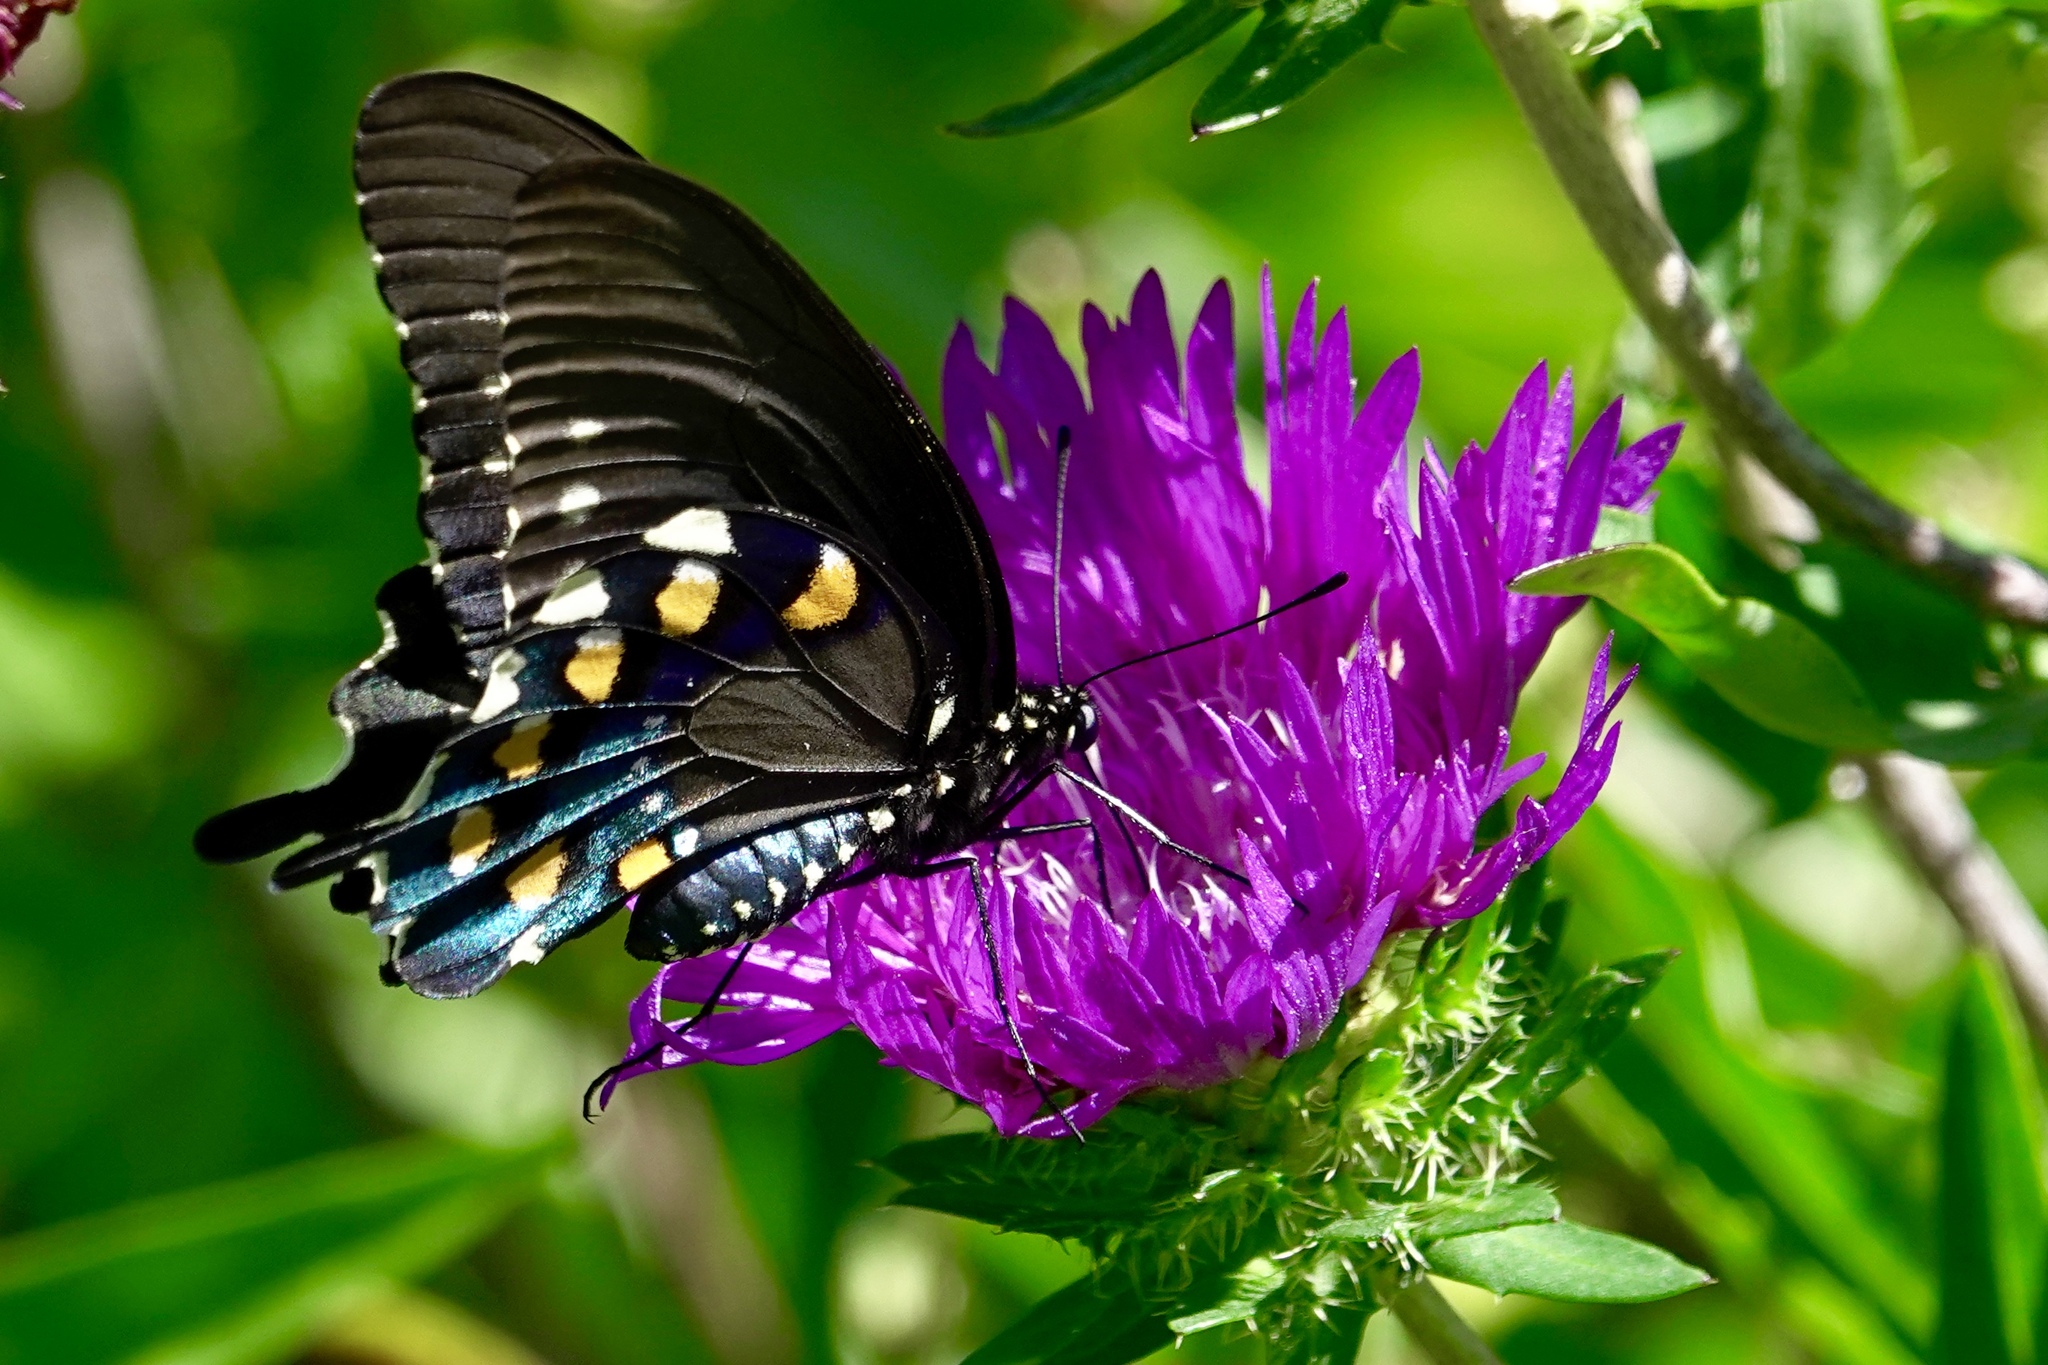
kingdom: Animalia
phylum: Arthropoda
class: Insecta
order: Lepidoptera
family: Papilionidae
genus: Battus
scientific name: Battus philenor
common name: Pipevine swallowtail
